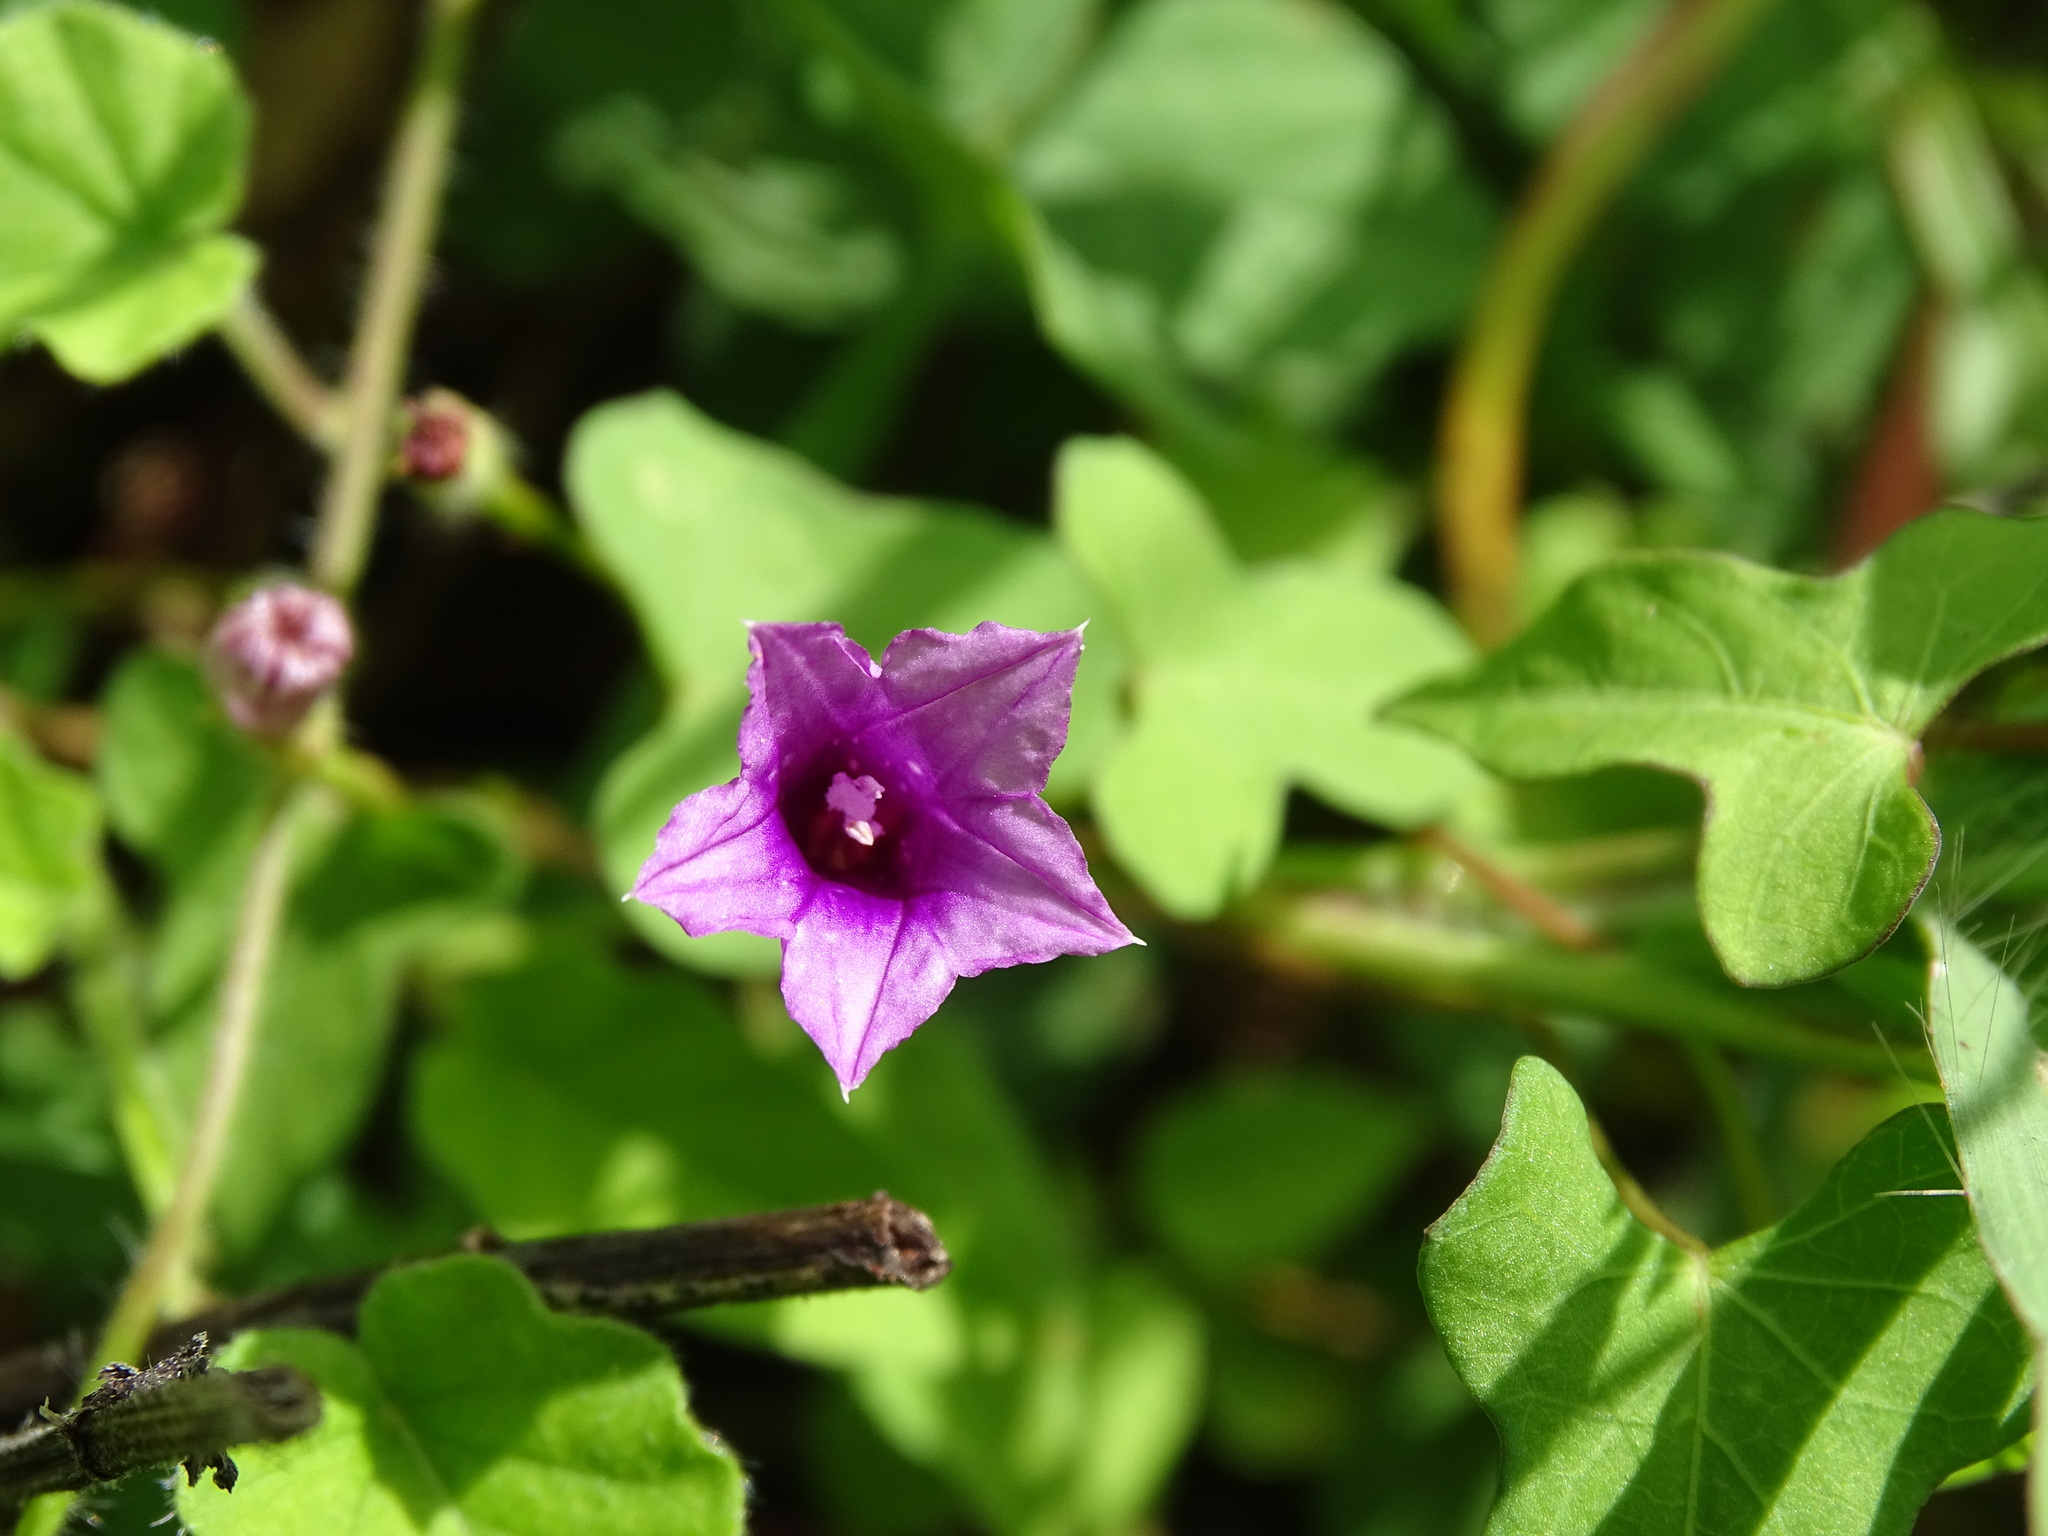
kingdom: Plantae
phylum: Tracheophyta
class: Magnoliopsida
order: Solanales
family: Convolvulaceae
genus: Ipomoea
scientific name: Ipomoea triloba
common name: Little-bell
